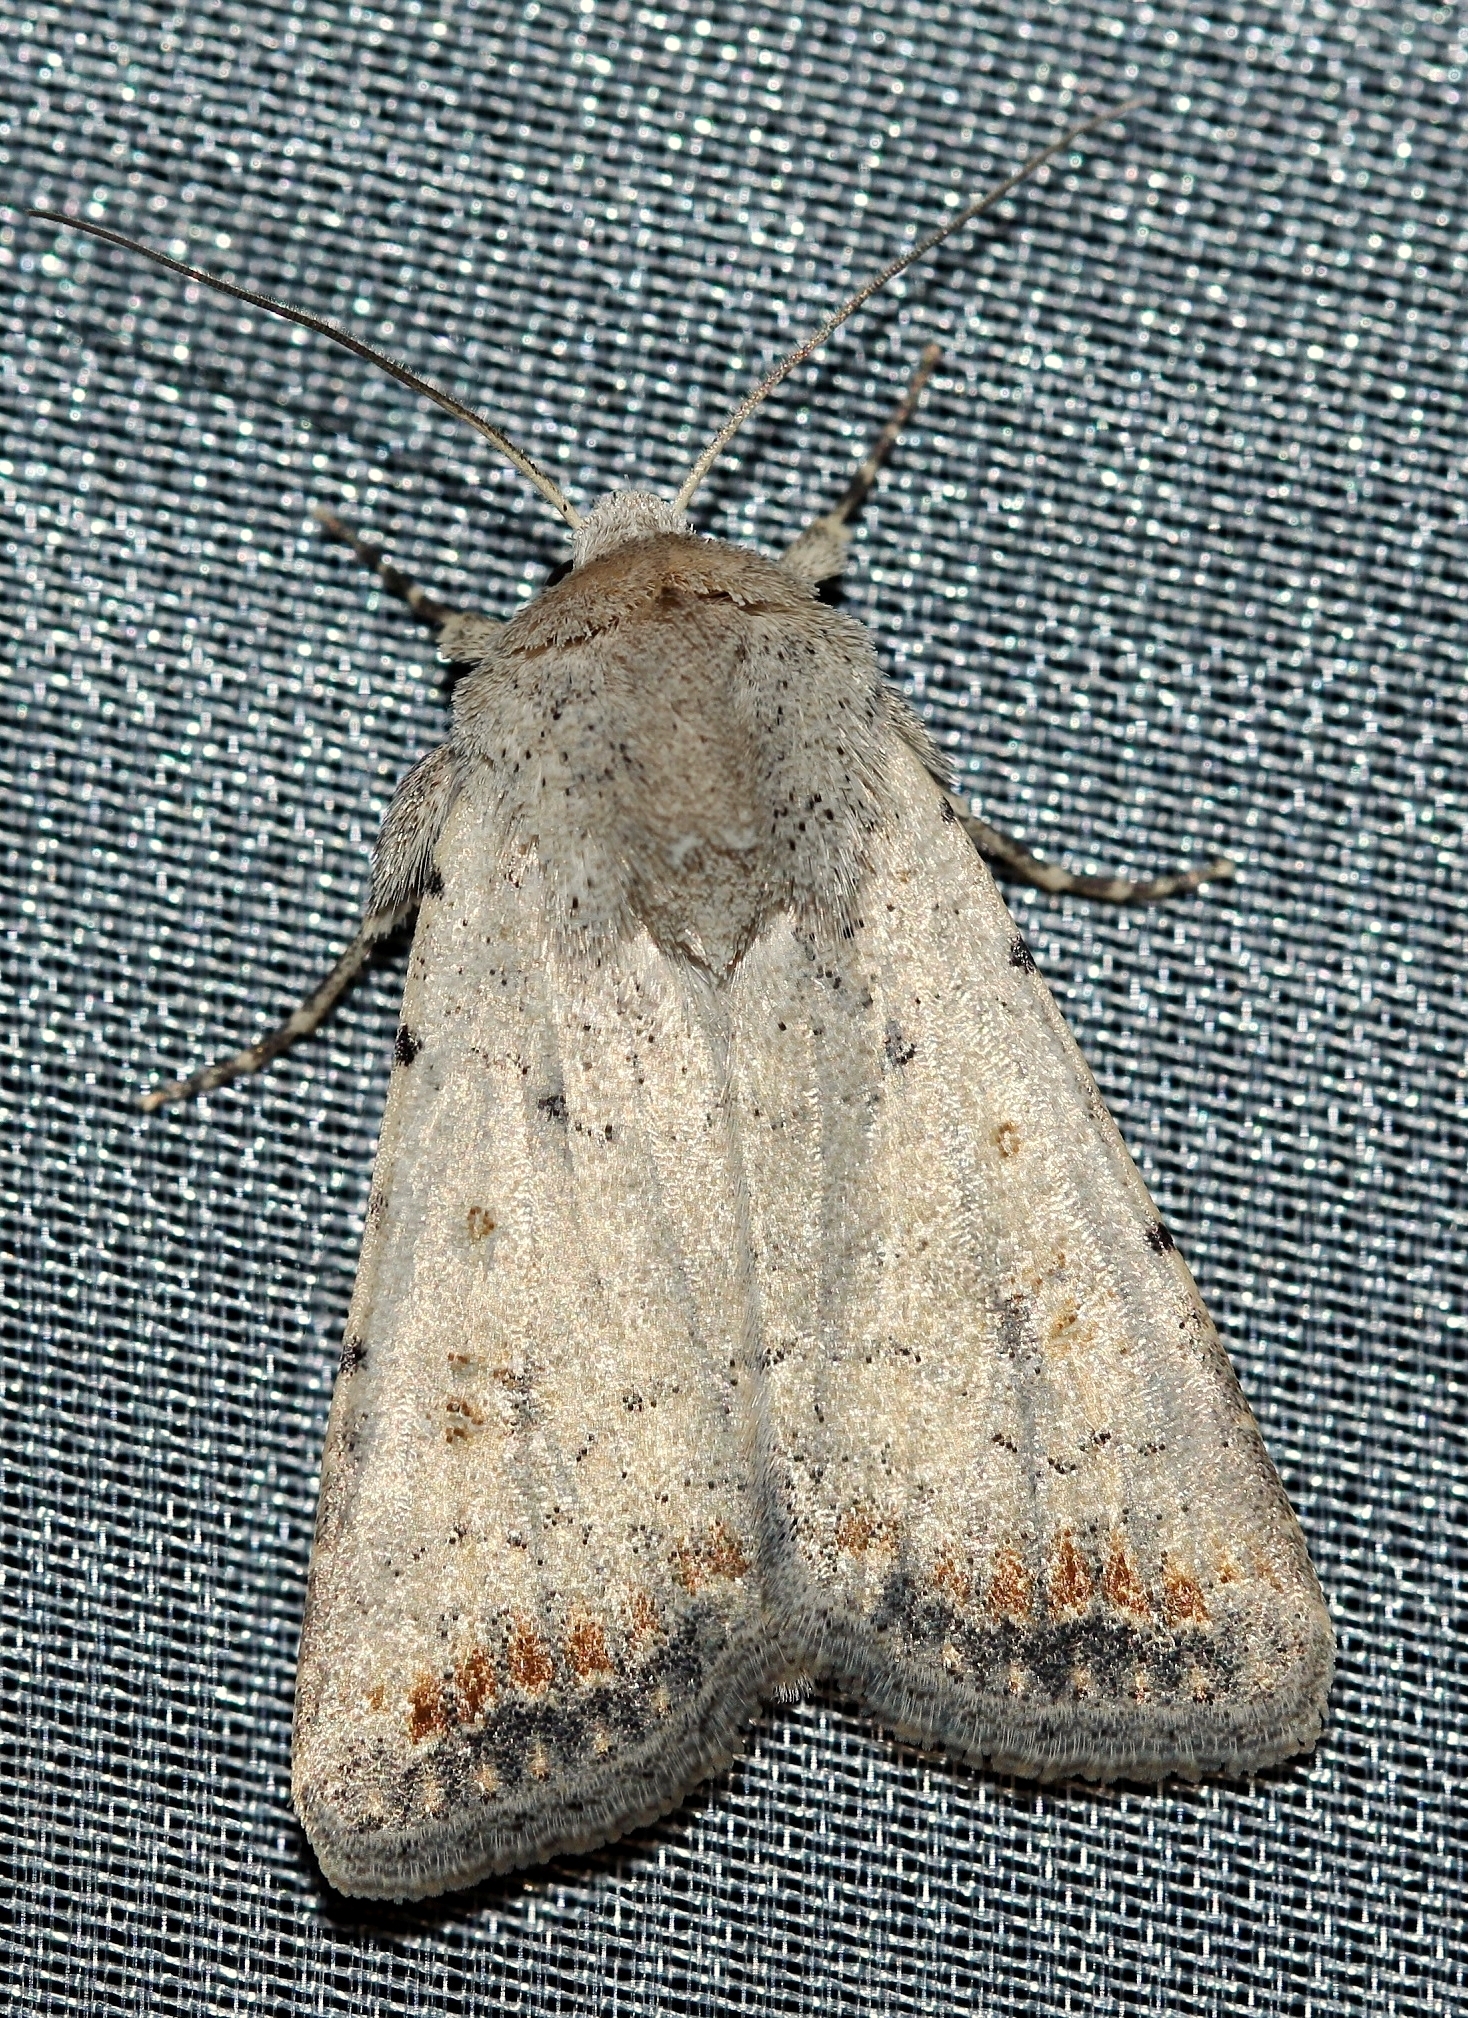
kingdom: Animalia
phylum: Arthropoda
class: Insecta
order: Lepidoptera
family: Noctuidae
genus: Caradrina
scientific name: Caradrina albina
